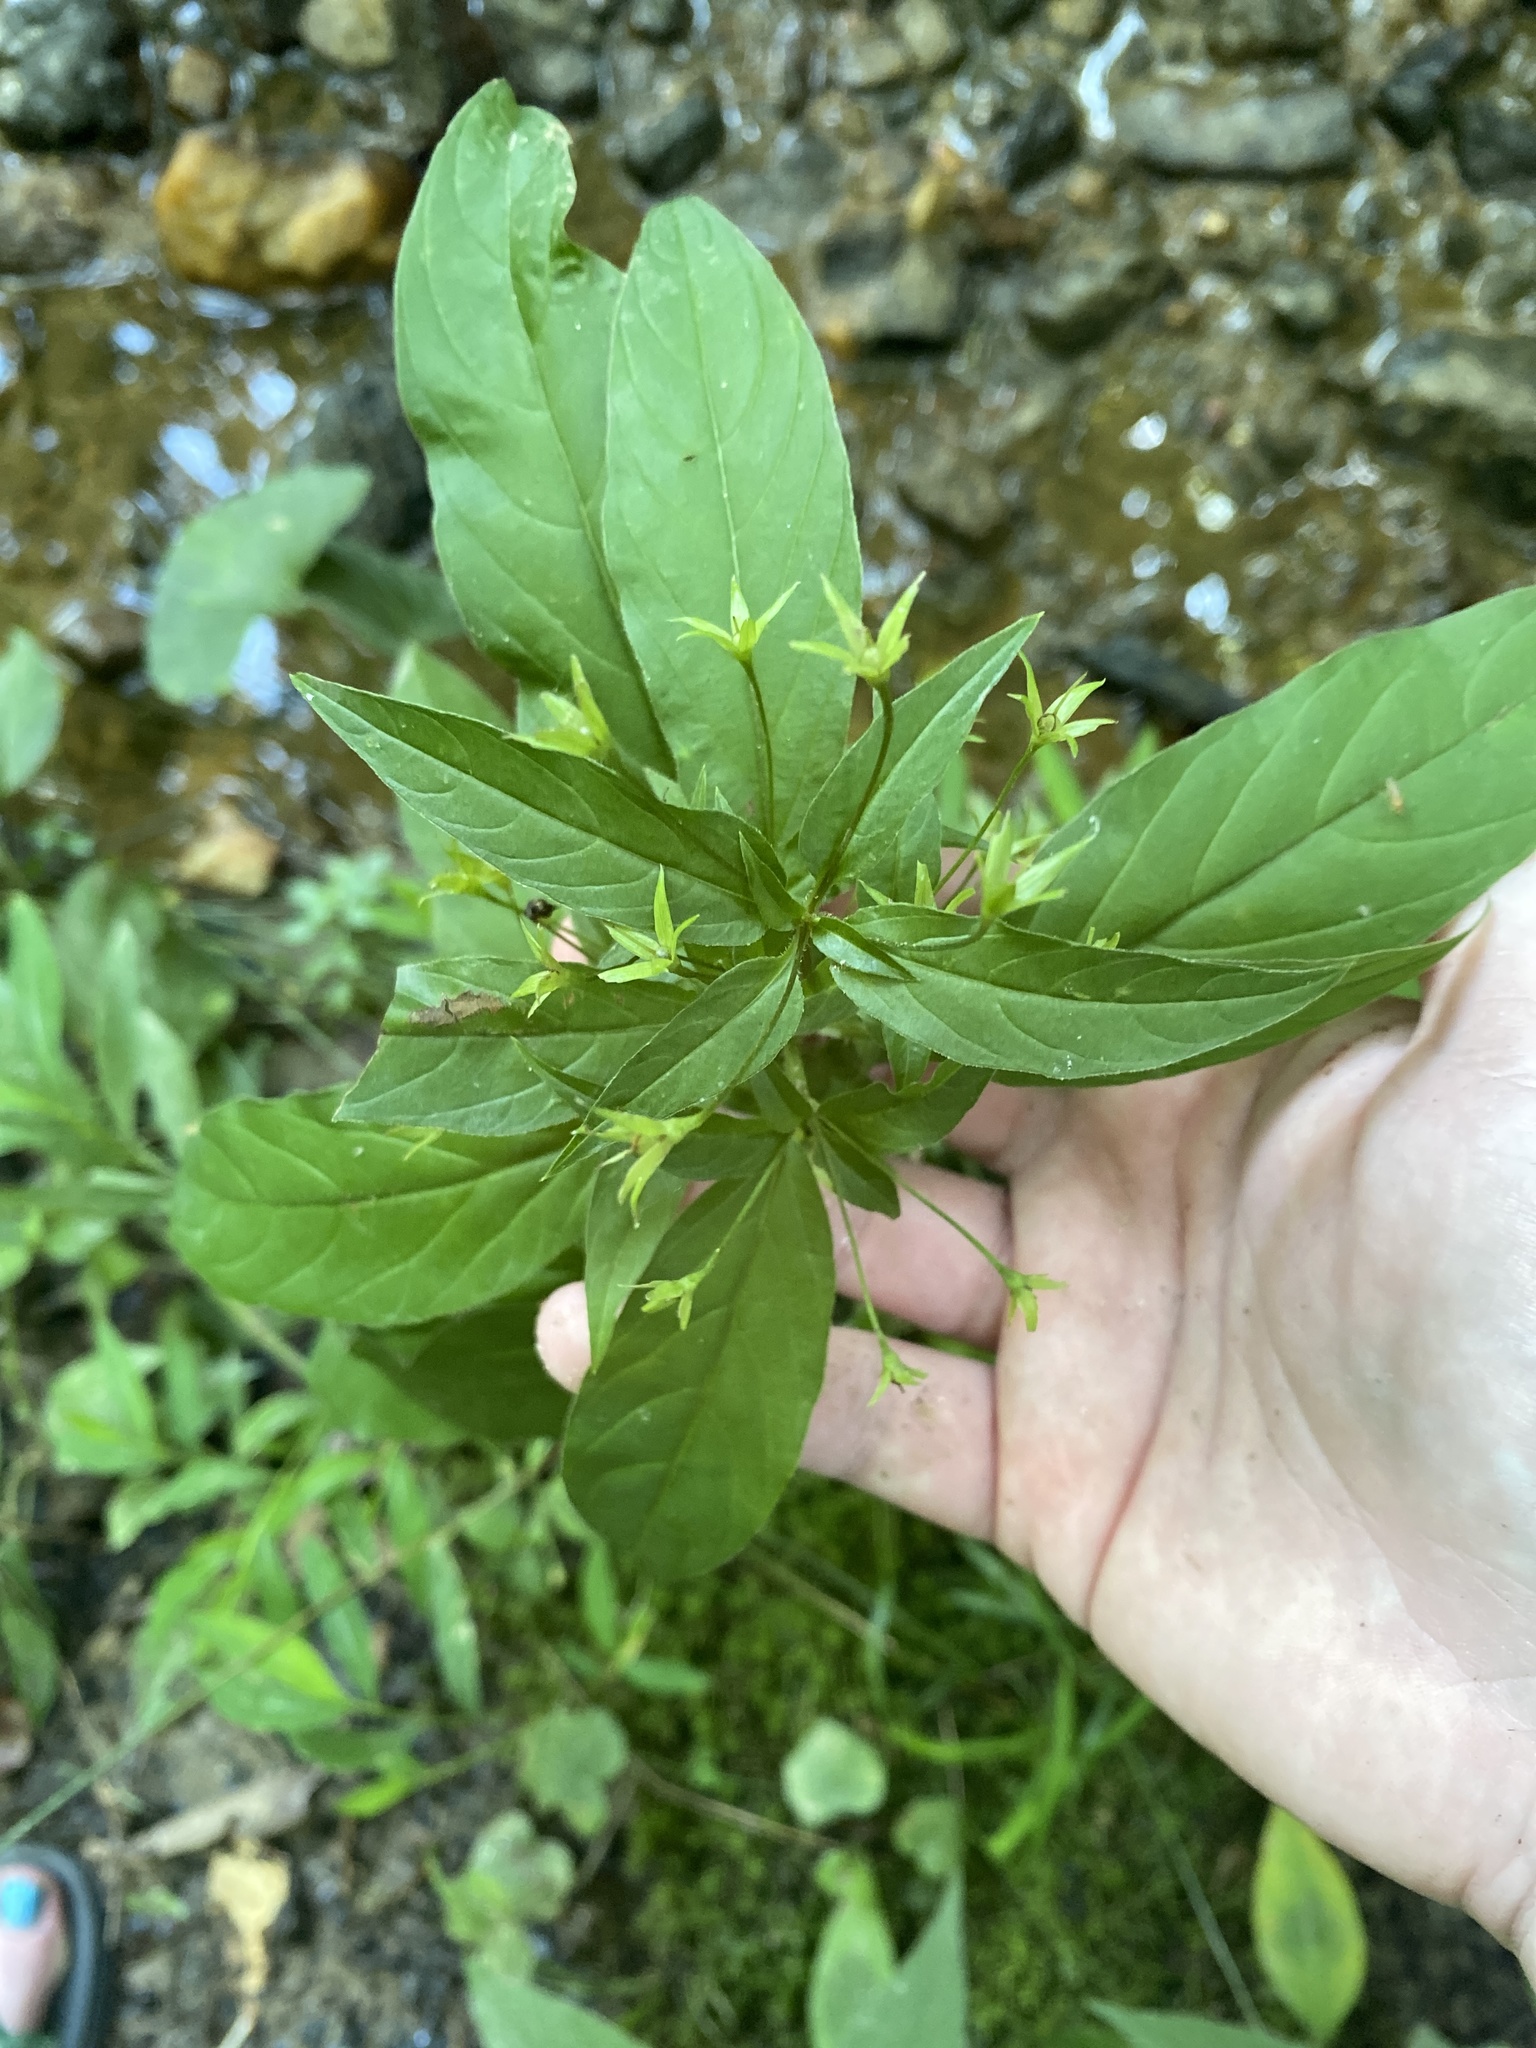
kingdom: Plantae
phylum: Tracheophyta
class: Magnoliopsida
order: Ericales
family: Primulaceae
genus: Lysimachia
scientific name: Lysimachia ciliata
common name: Fringed loosestrife
